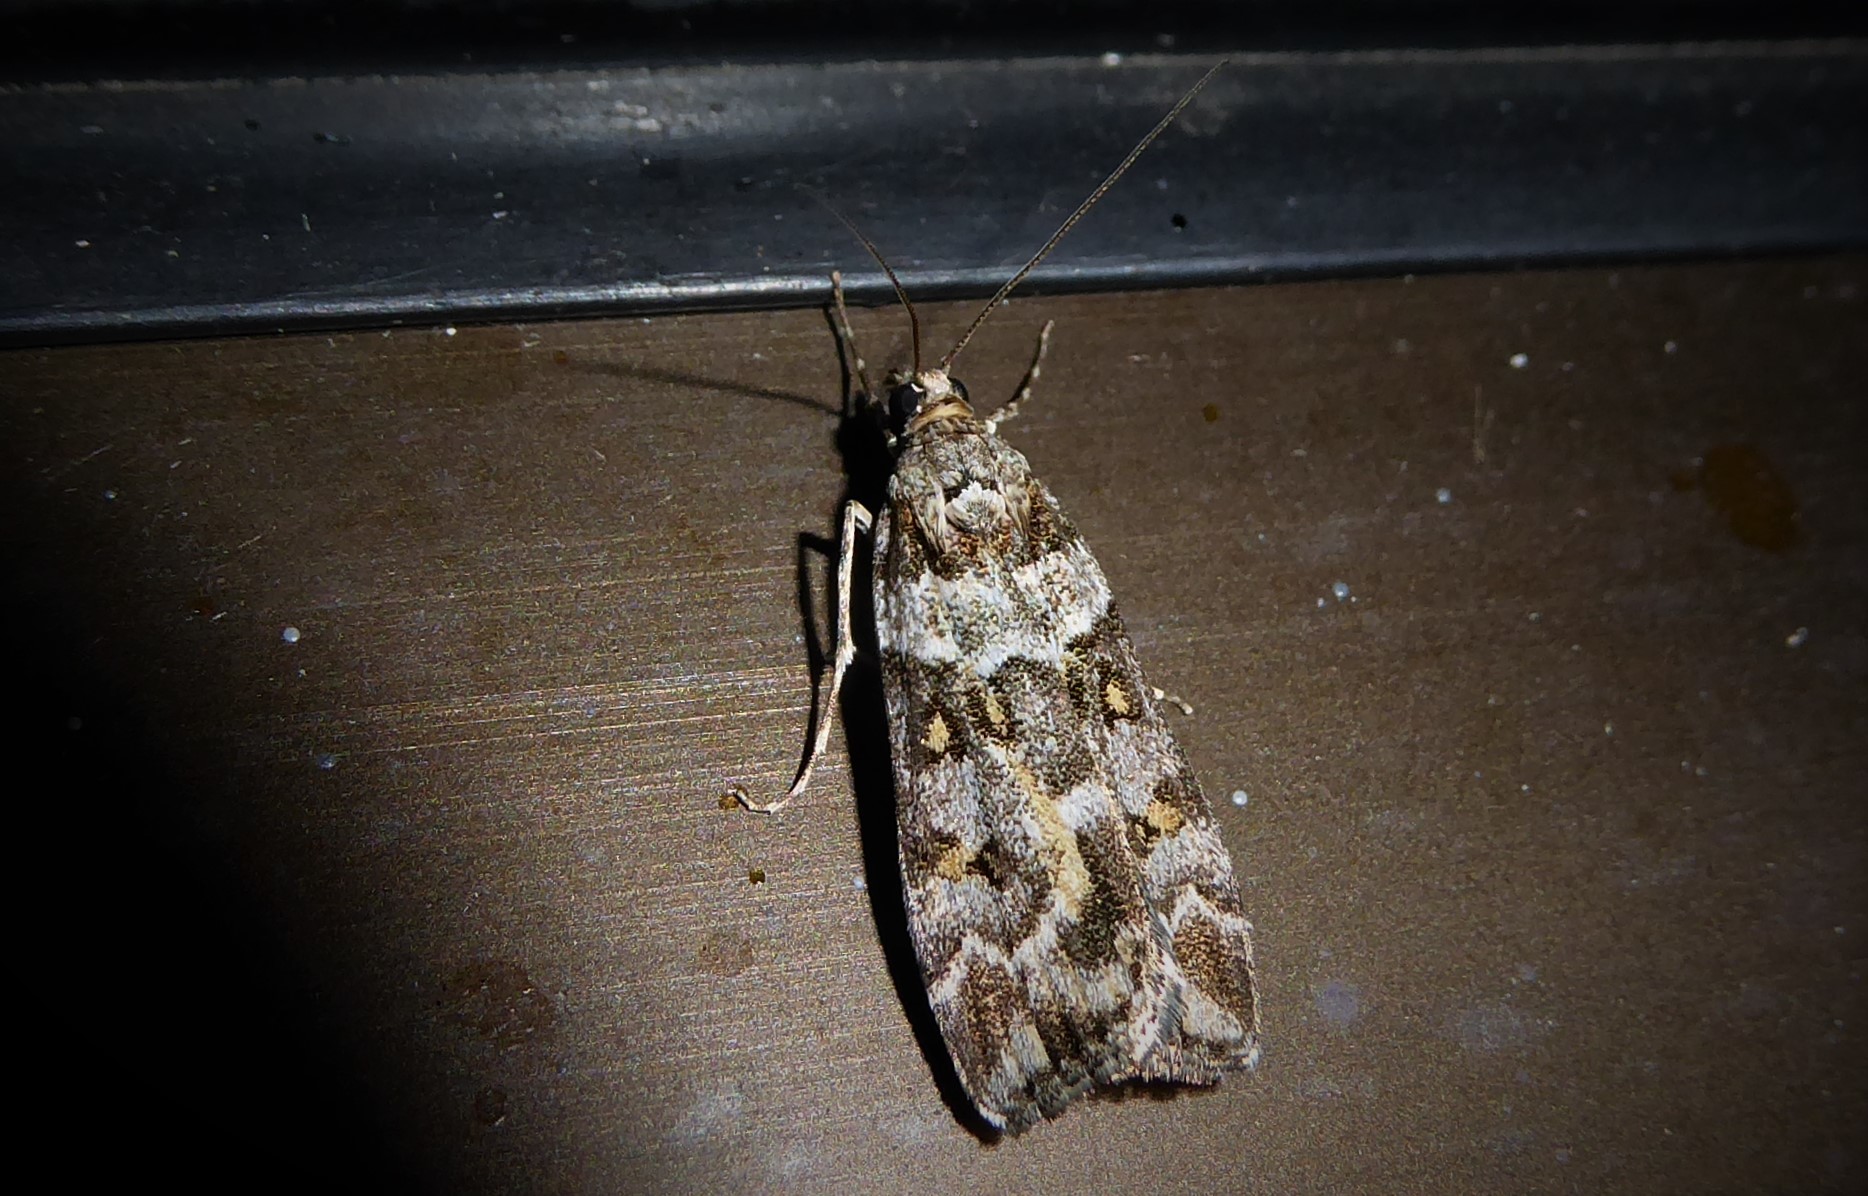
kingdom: Animalia
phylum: Arthropoda
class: Insecta
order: Lepidoptera
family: Crambidae
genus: Eudonia
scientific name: Eudonia diphtheralis
